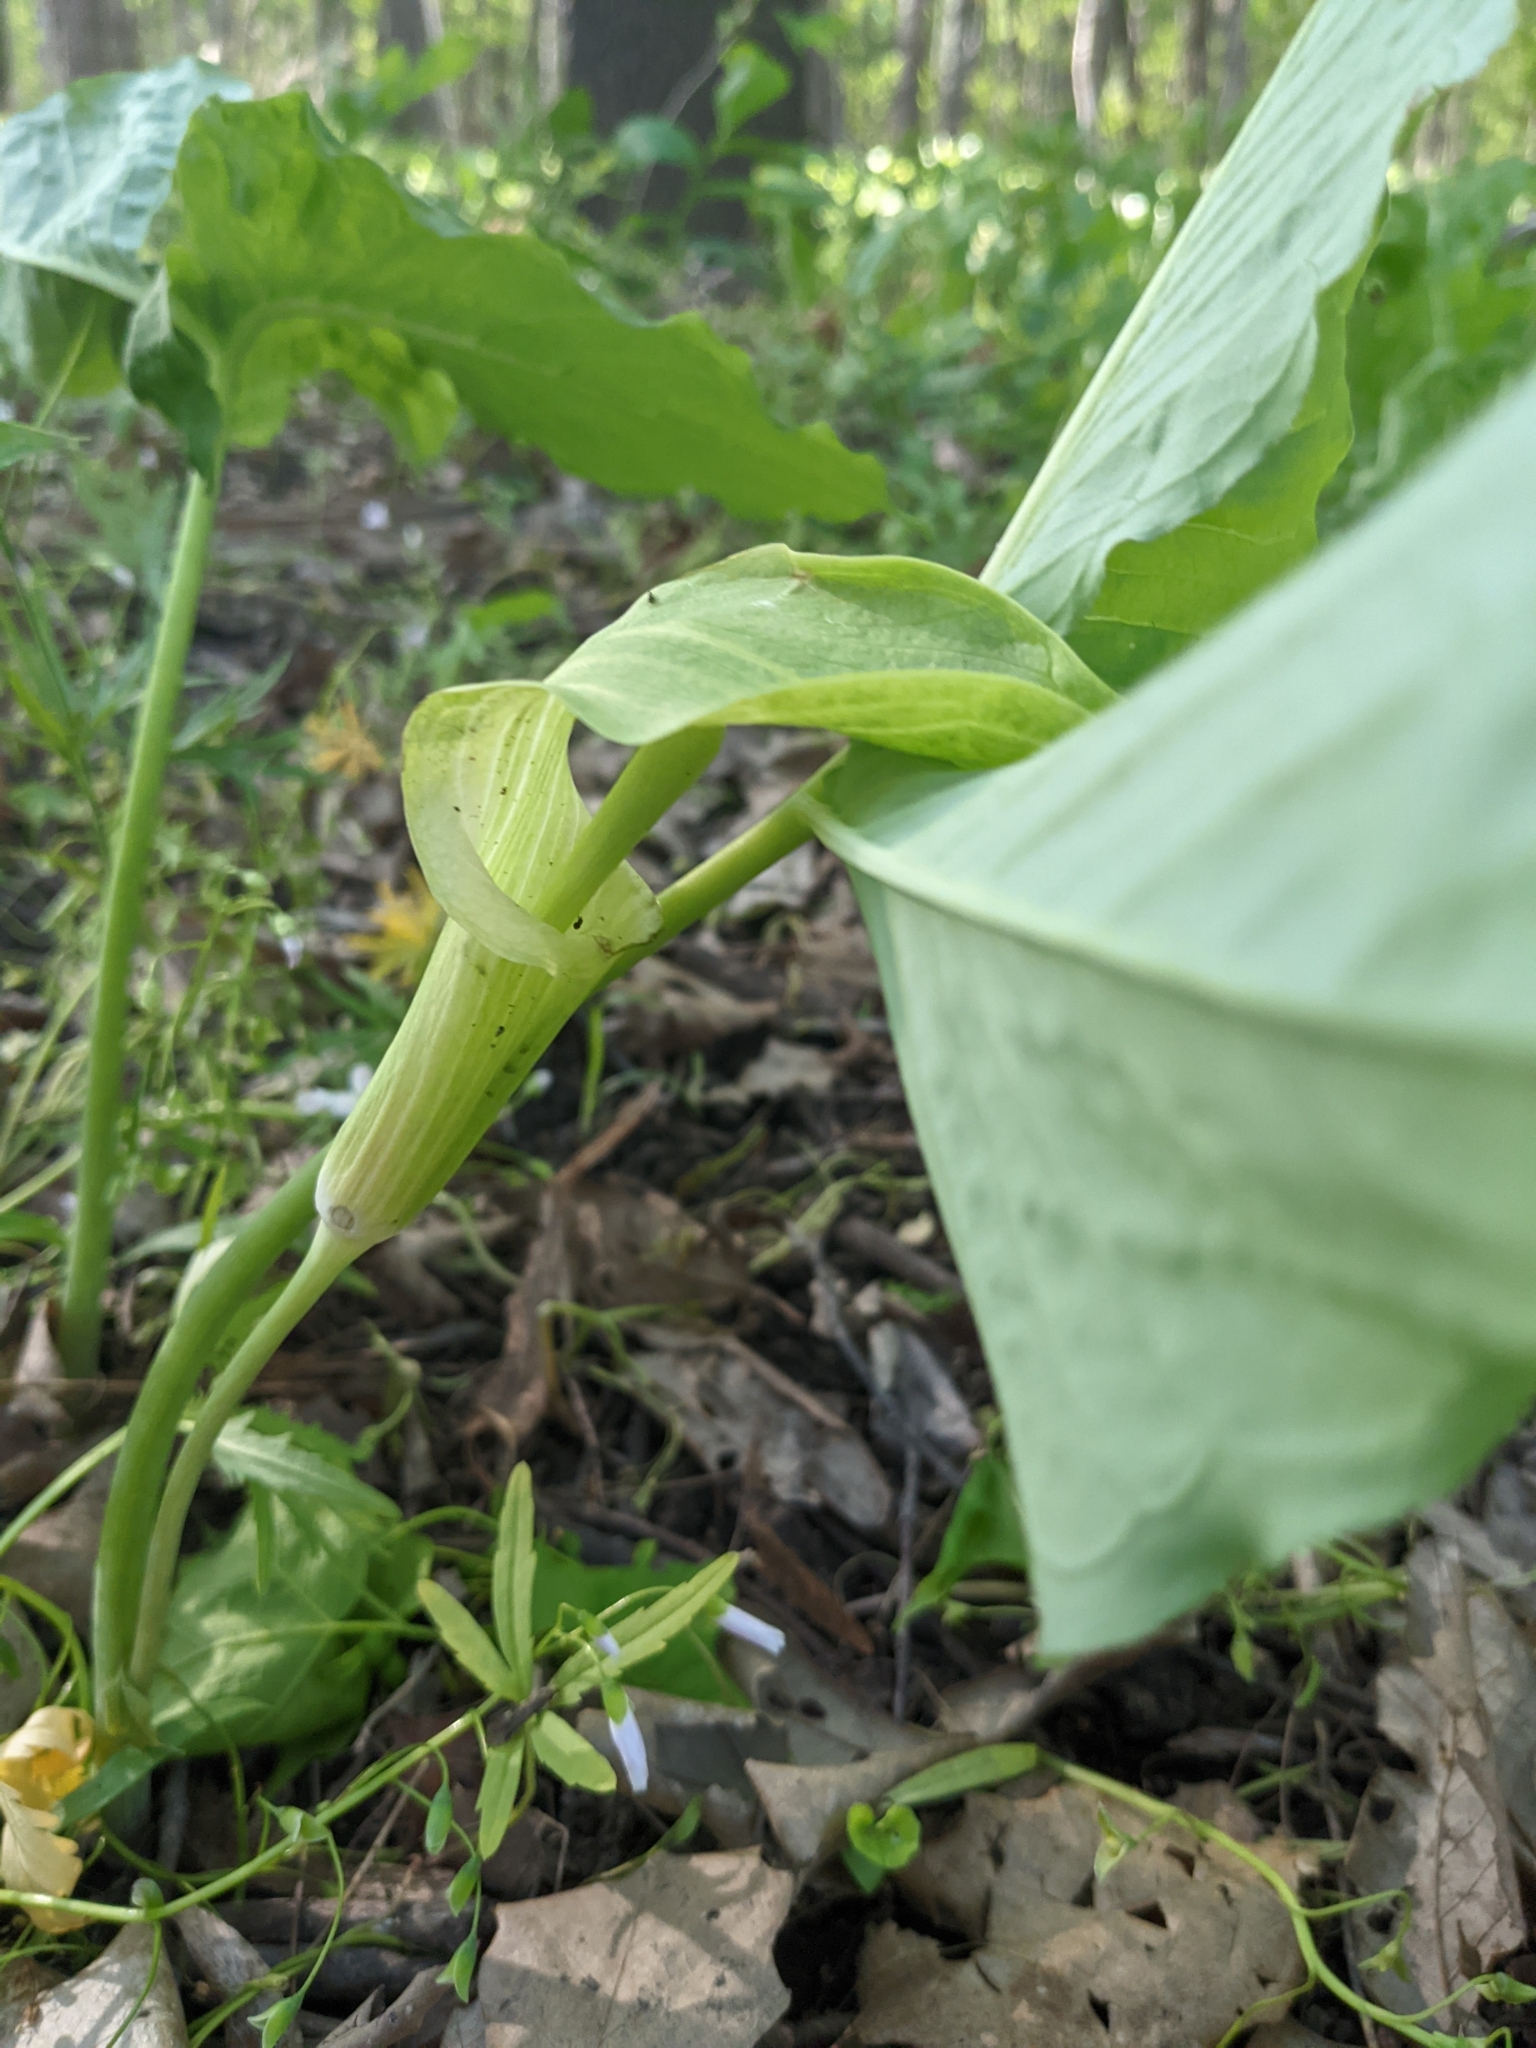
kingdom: Plantae
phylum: Tracheophyta
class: Liliopsida
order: Alismatales
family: Araceae
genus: Arisaema
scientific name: Arisaema triphyllum
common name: Jack-in-the-pulpit
